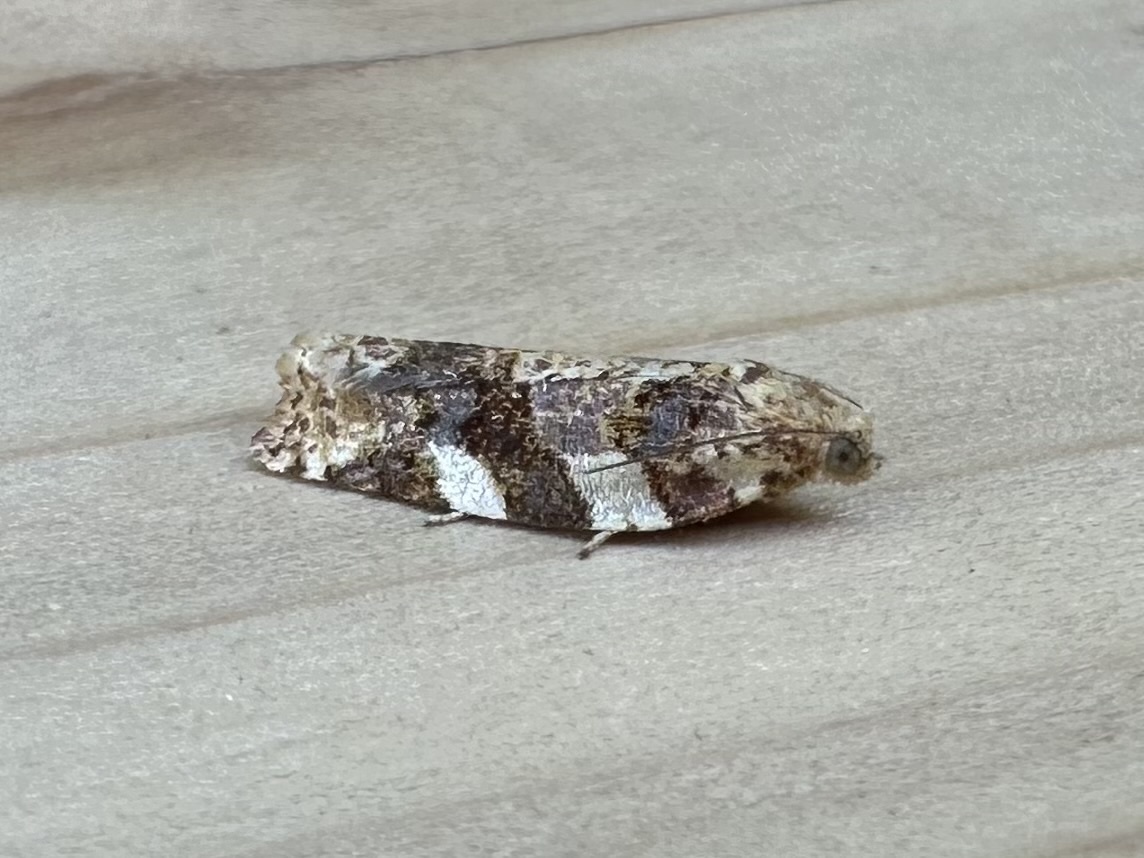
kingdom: Animalia
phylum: Arthropoda
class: Insecta
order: Lepidoptera
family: Tortricidae
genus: Archips
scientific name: Archips argyrospila
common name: Fruit-tree leafroller moth
